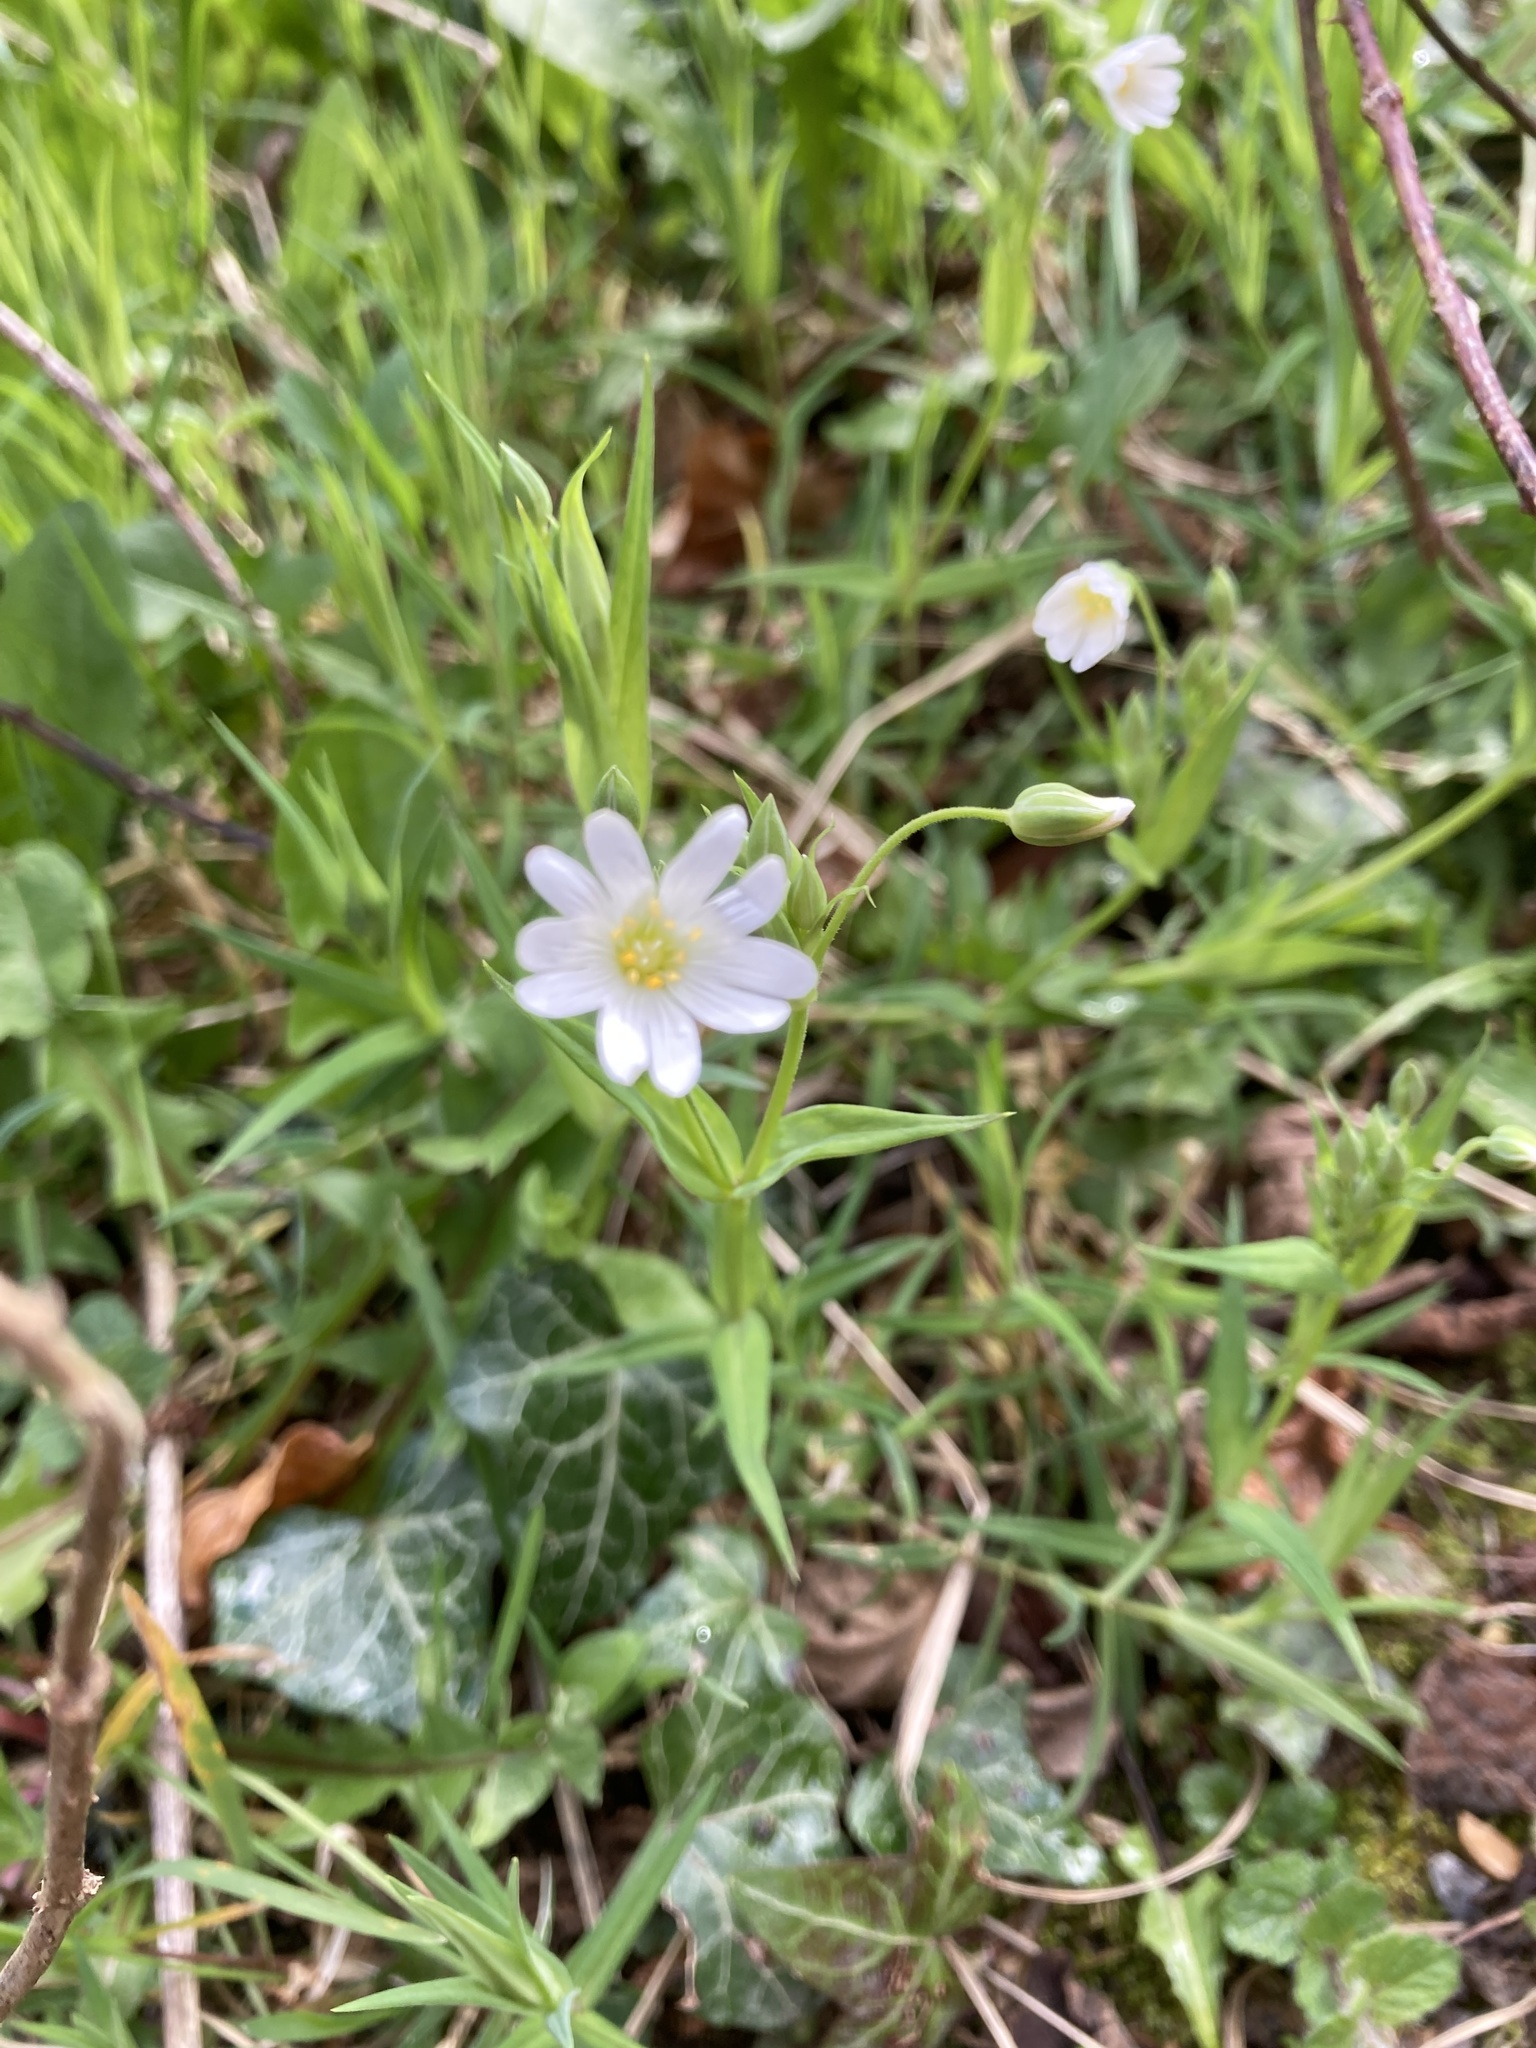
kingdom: Plantae
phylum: Tracheophyta
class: Magnoliopsida
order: Caryophyllales
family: Caryophyllaceae
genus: Rabelera
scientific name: Rabelera holostea
